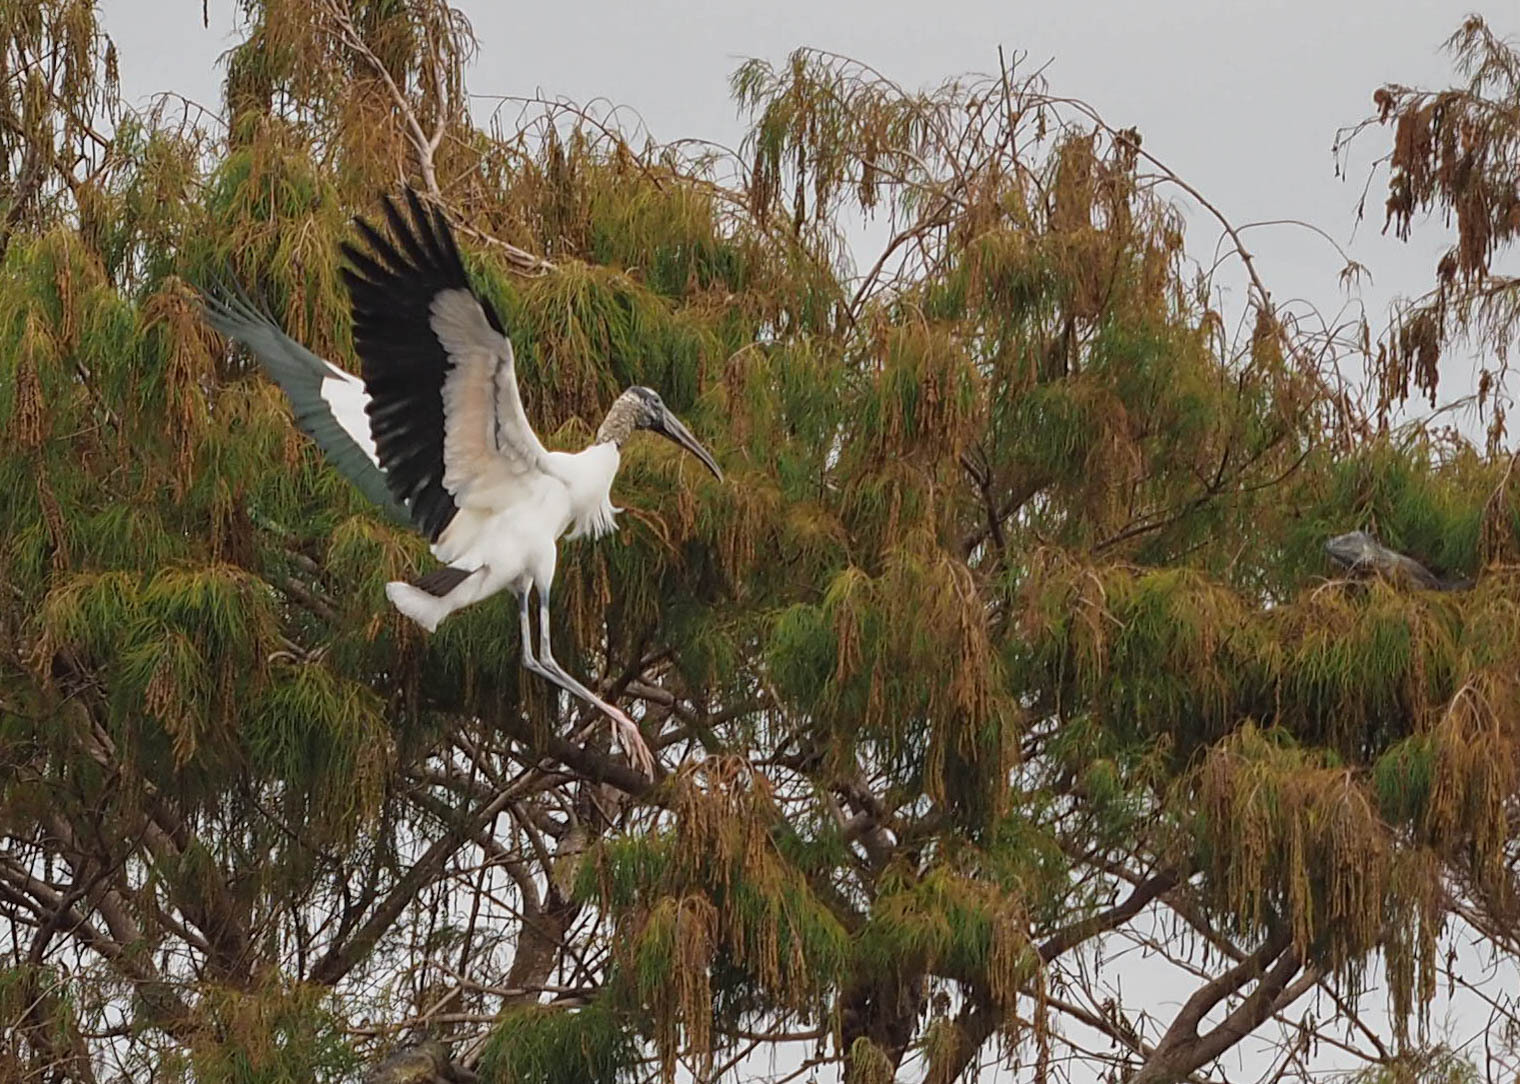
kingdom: Animalia
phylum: Chordata
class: Aves
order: Ciconiiformes
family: Ciconiidae
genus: Mycteria
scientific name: Mycteria americana
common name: Wood stork
